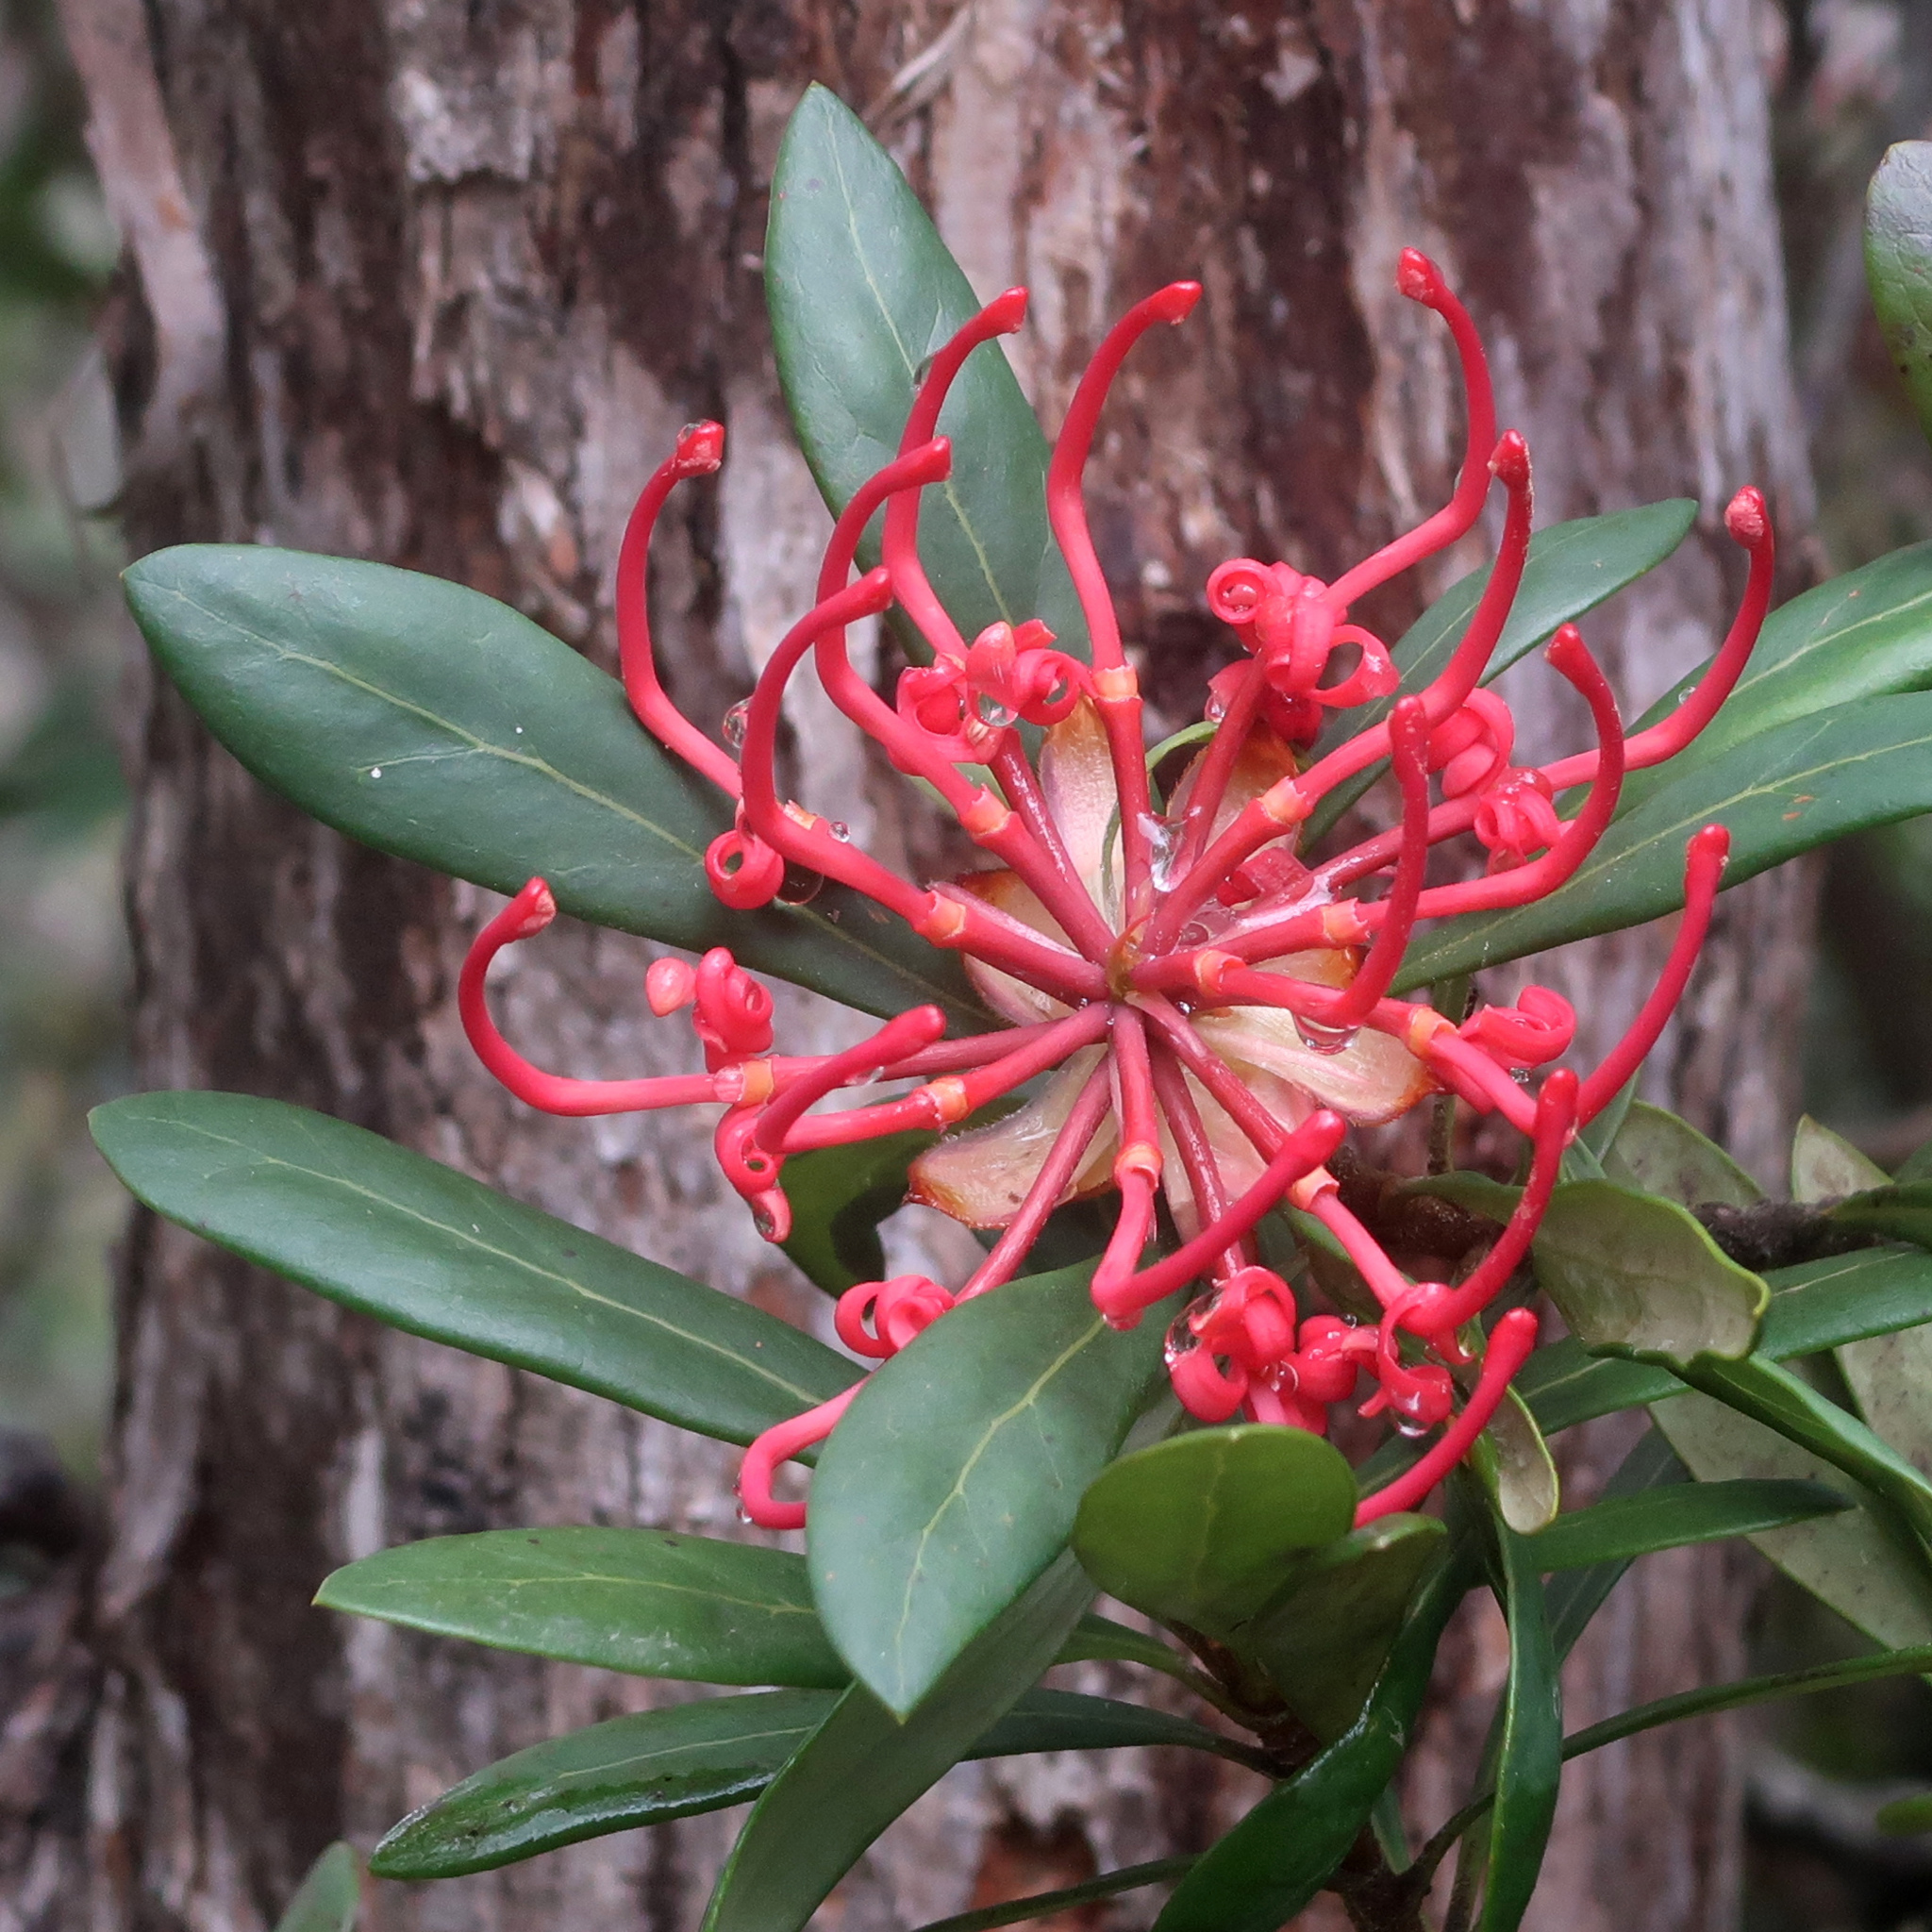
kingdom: Plantae
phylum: Tracheophyta
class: Magnoliopsida
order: Proteales
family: Proteaceae
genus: Telopea
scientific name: Telopea truncata
